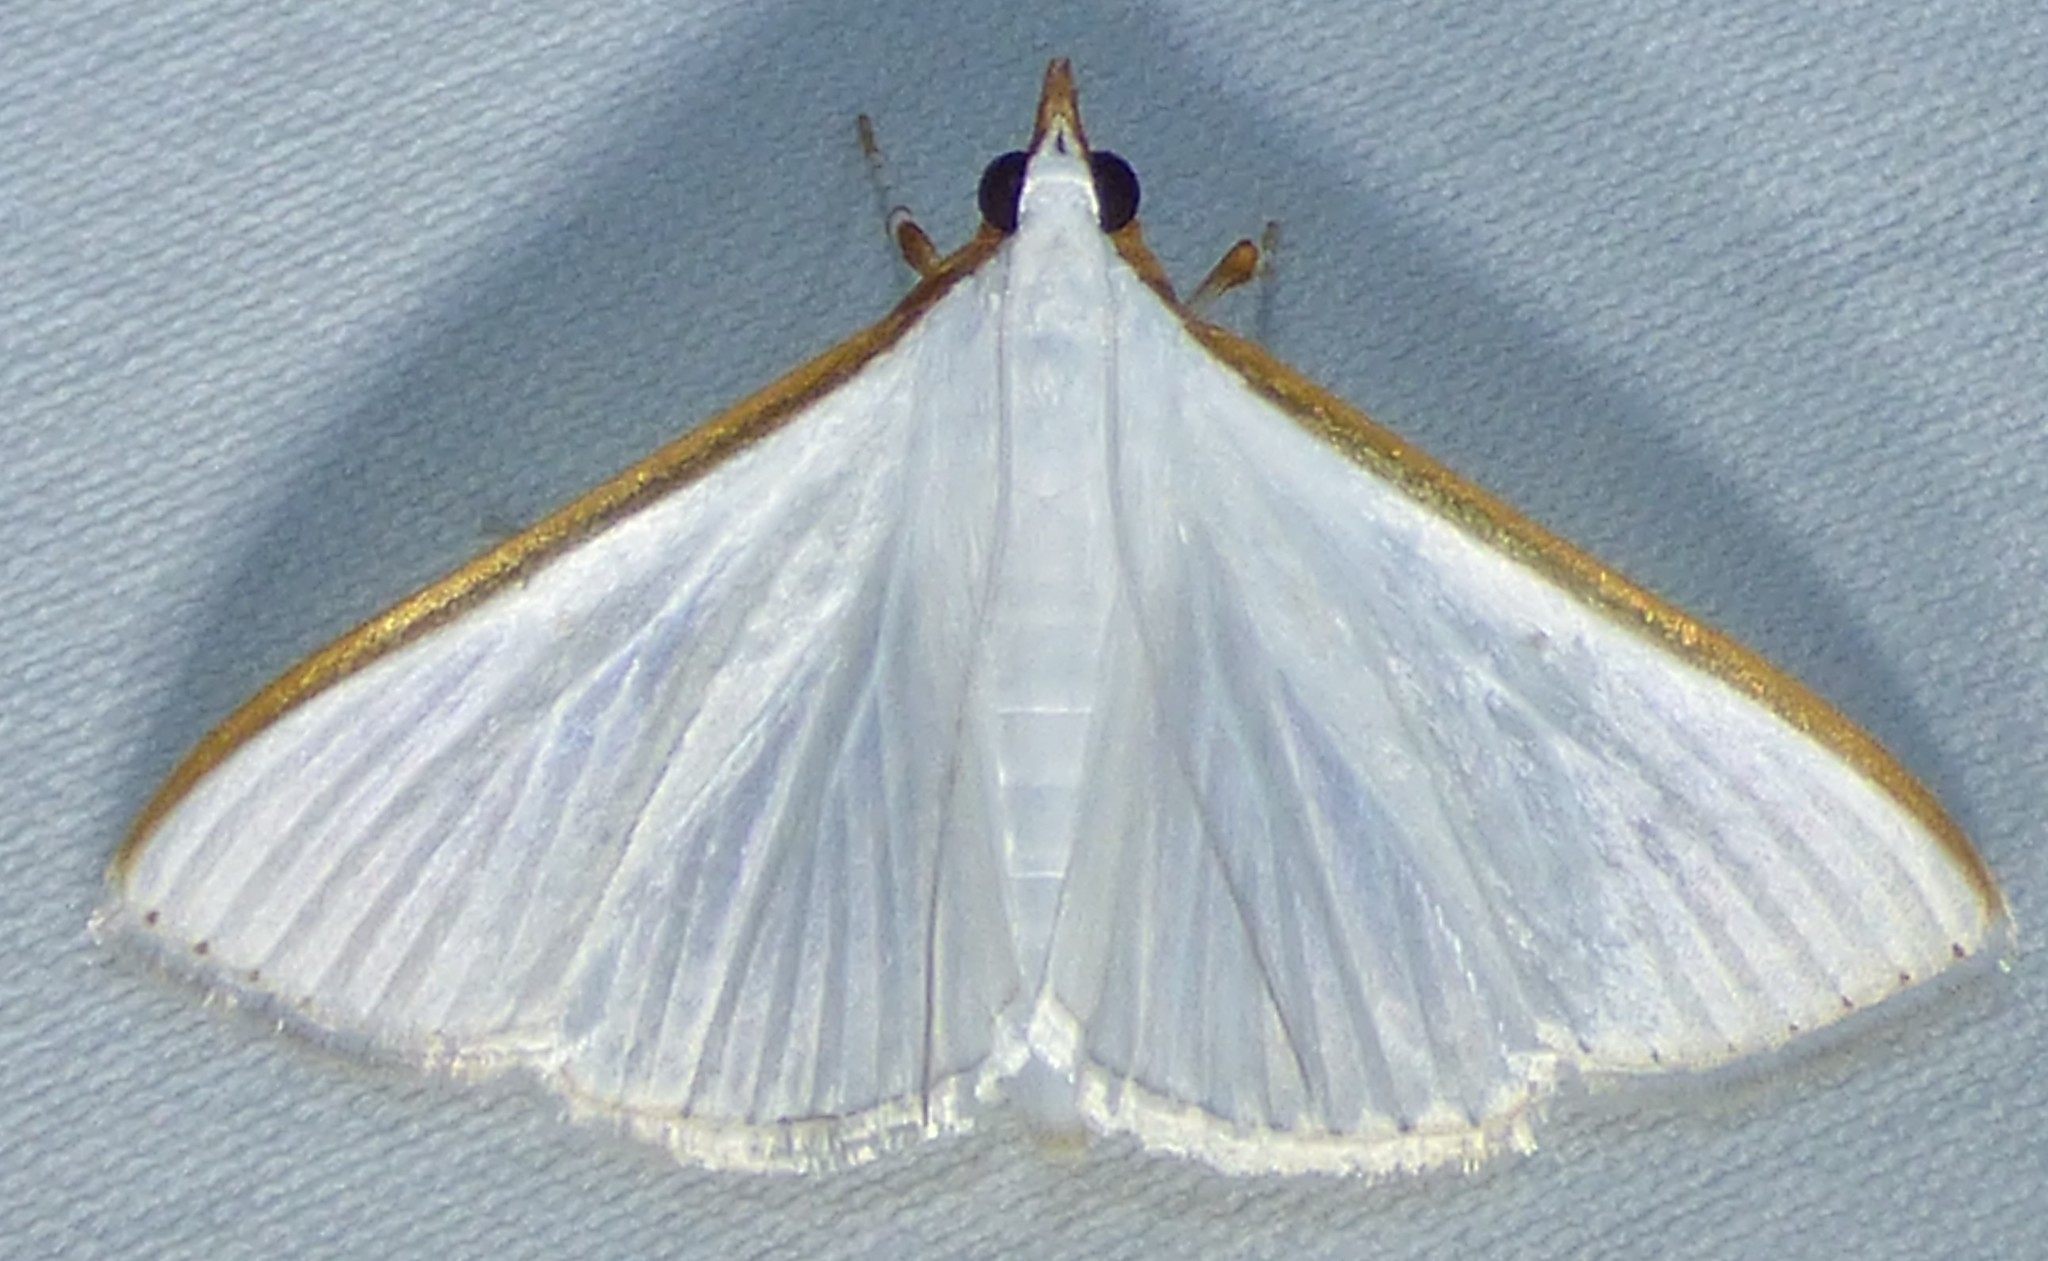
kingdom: Animalia
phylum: Arthropoda
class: Insecta
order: Lepidoptera
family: Crambidae
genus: Diaphania
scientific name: Diaphania costata
